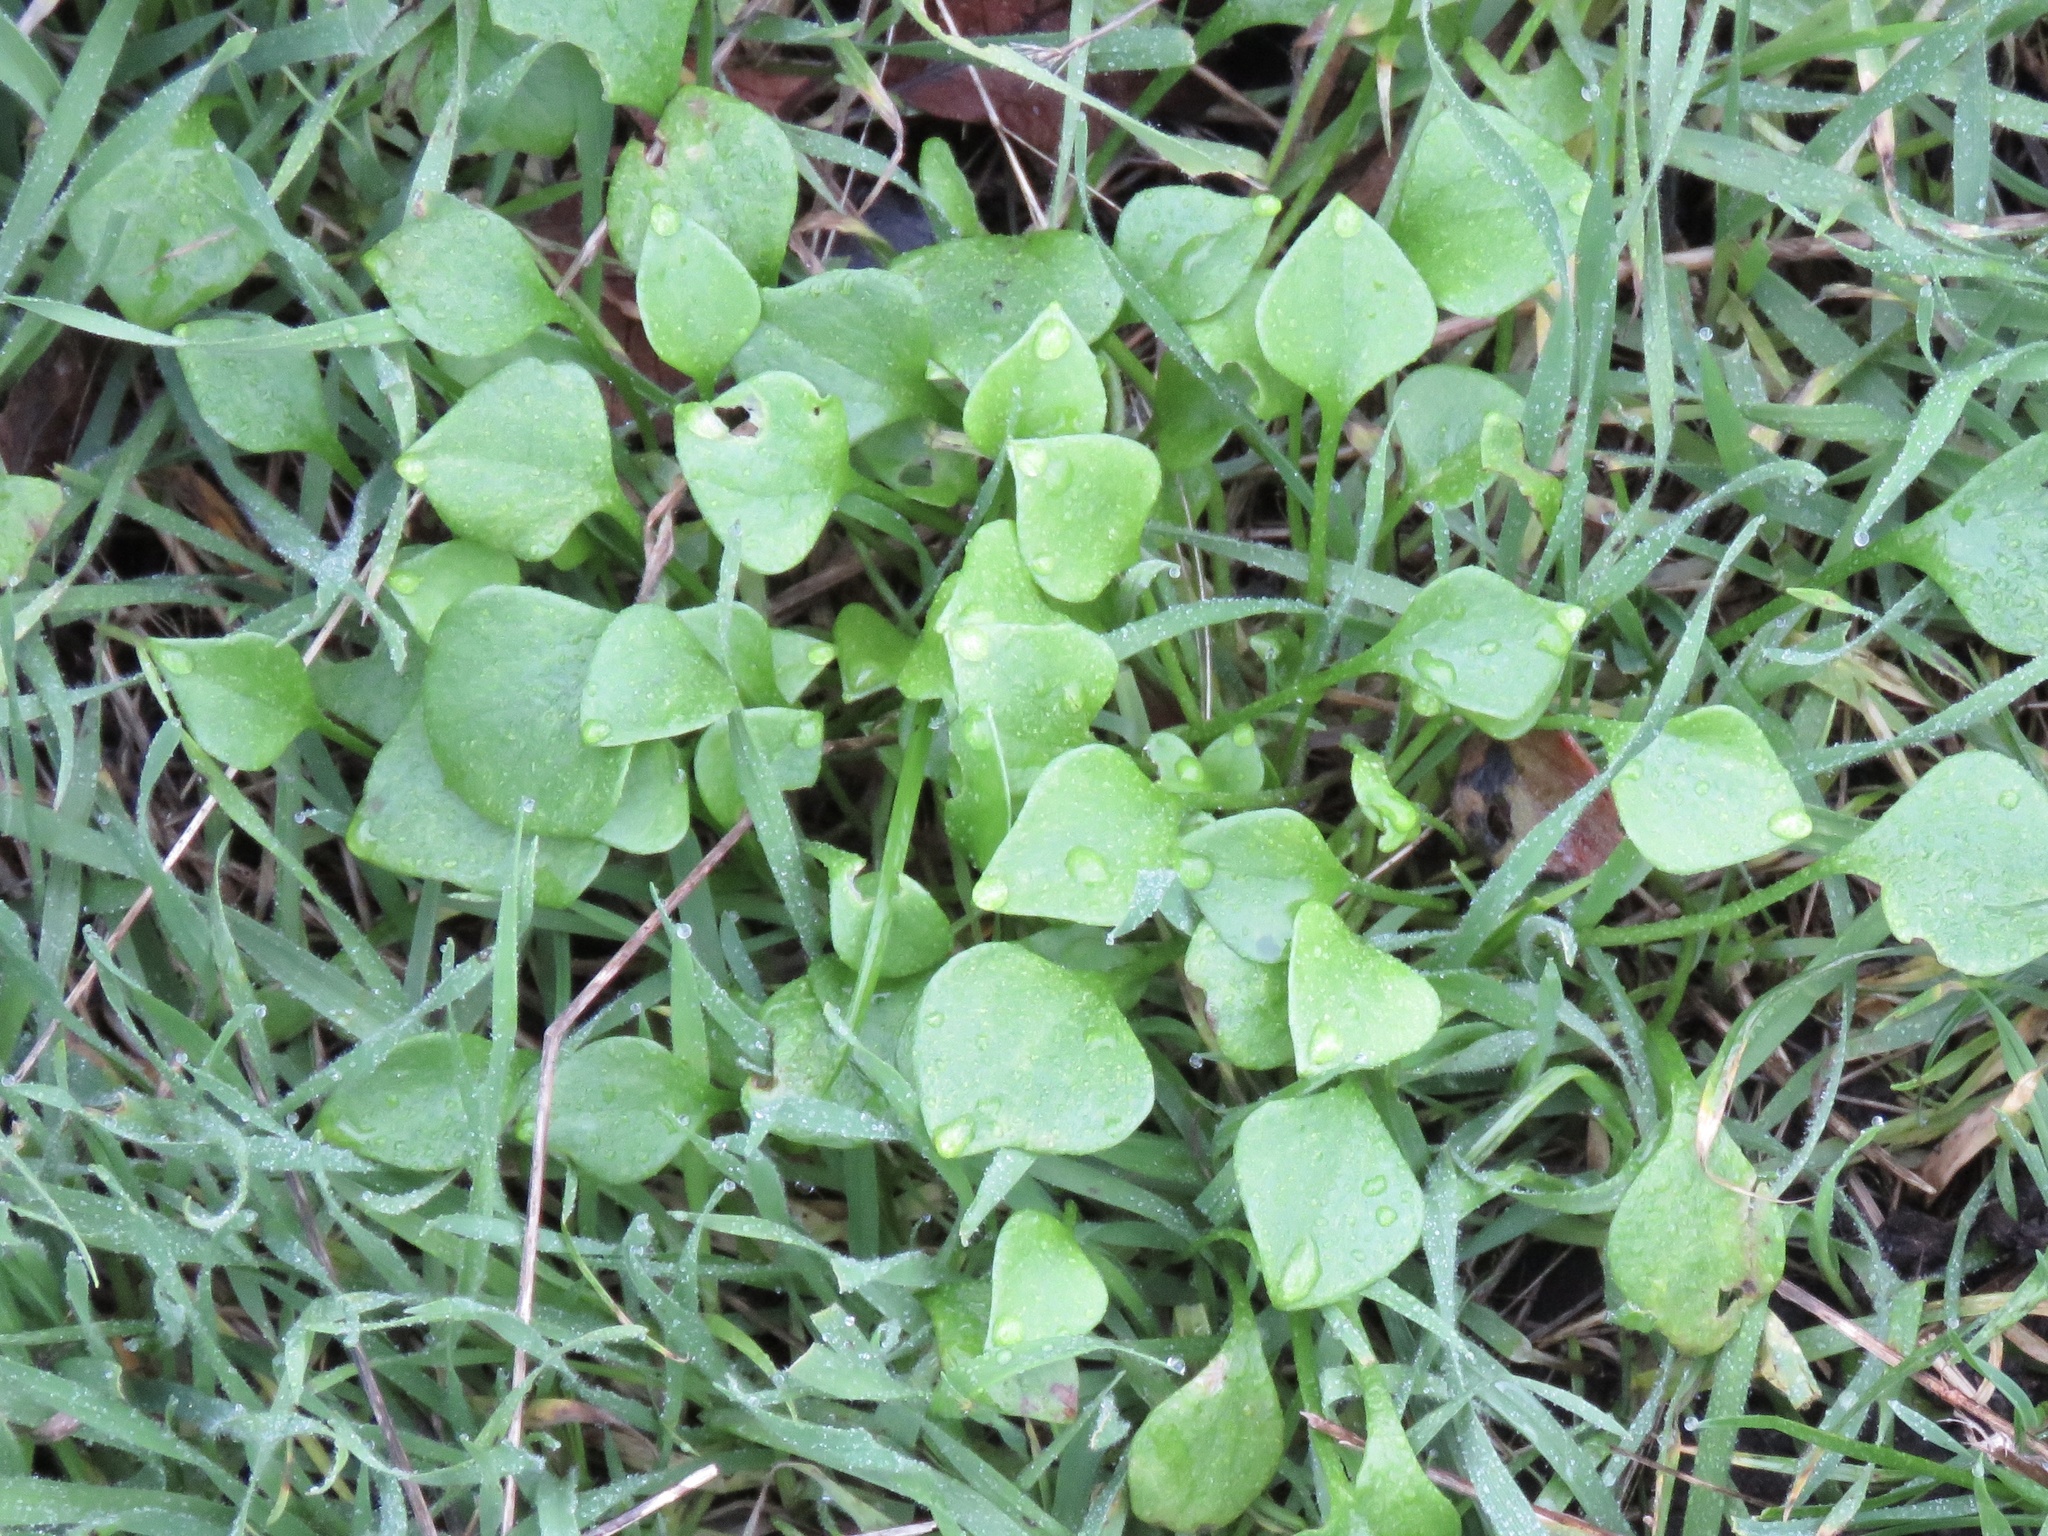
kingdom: Plantae
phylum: Tracheophyta
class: Magnoliopsida
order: Caryophyllales
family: Montiaceae
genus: Claytonia
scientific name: Claytonia perfoliata
